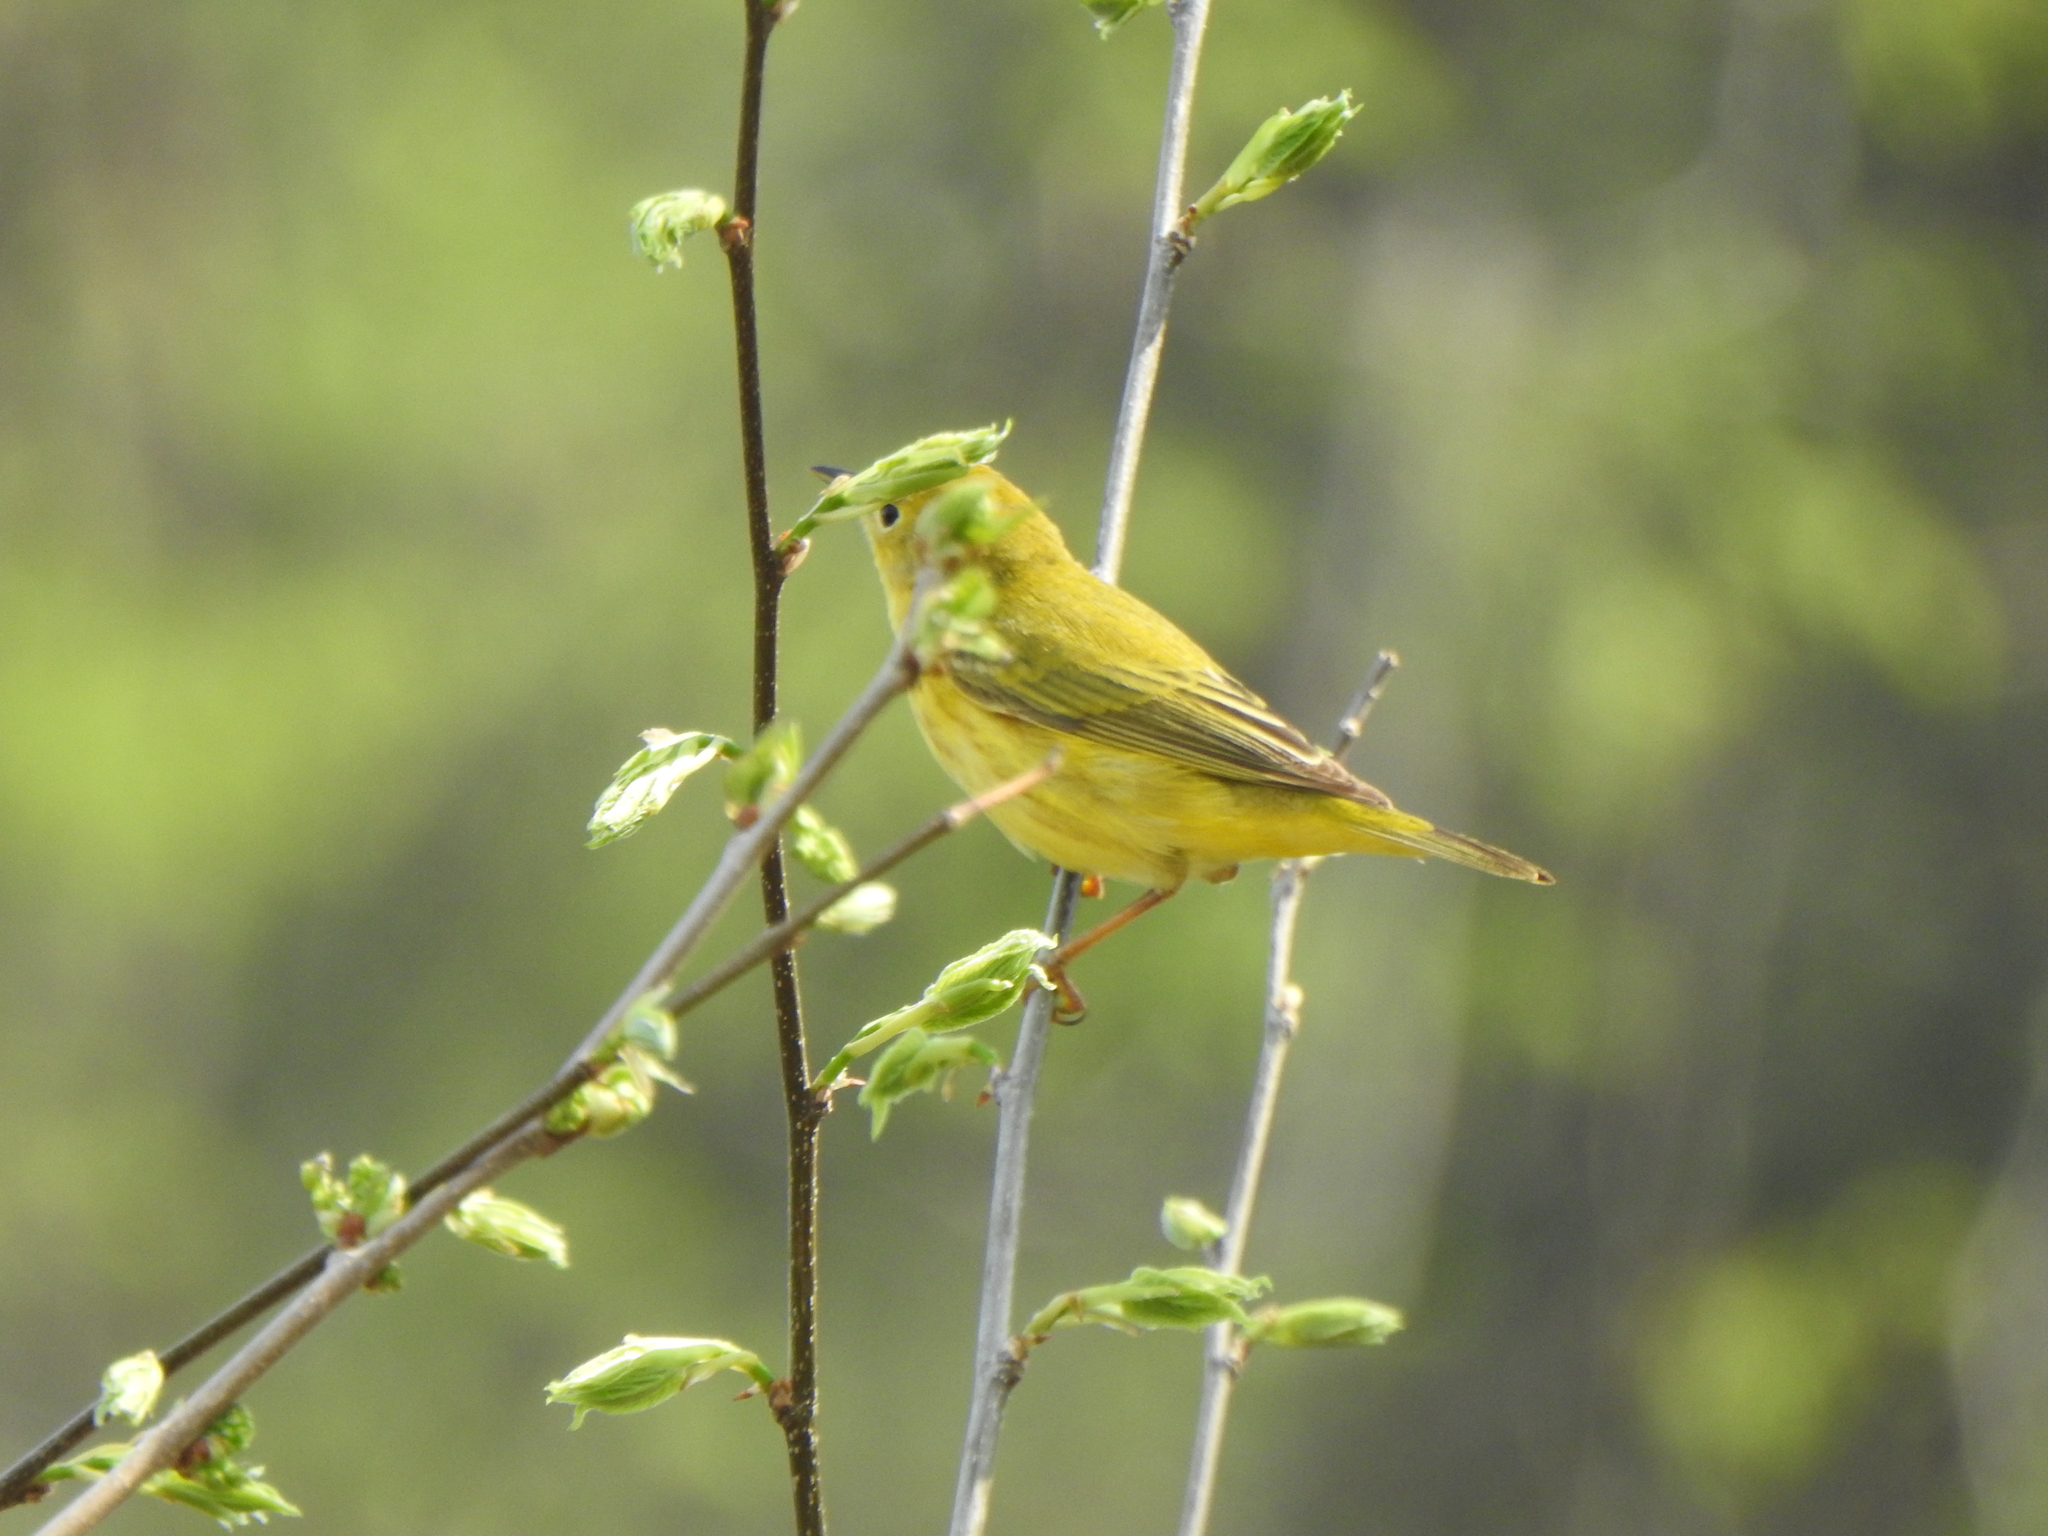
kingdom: Animalia
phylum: Chordata
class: Aves
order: Passeriformes
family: Parulidae
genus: Setophaga
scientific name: Setophaga petechia
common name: Yellow warbler
